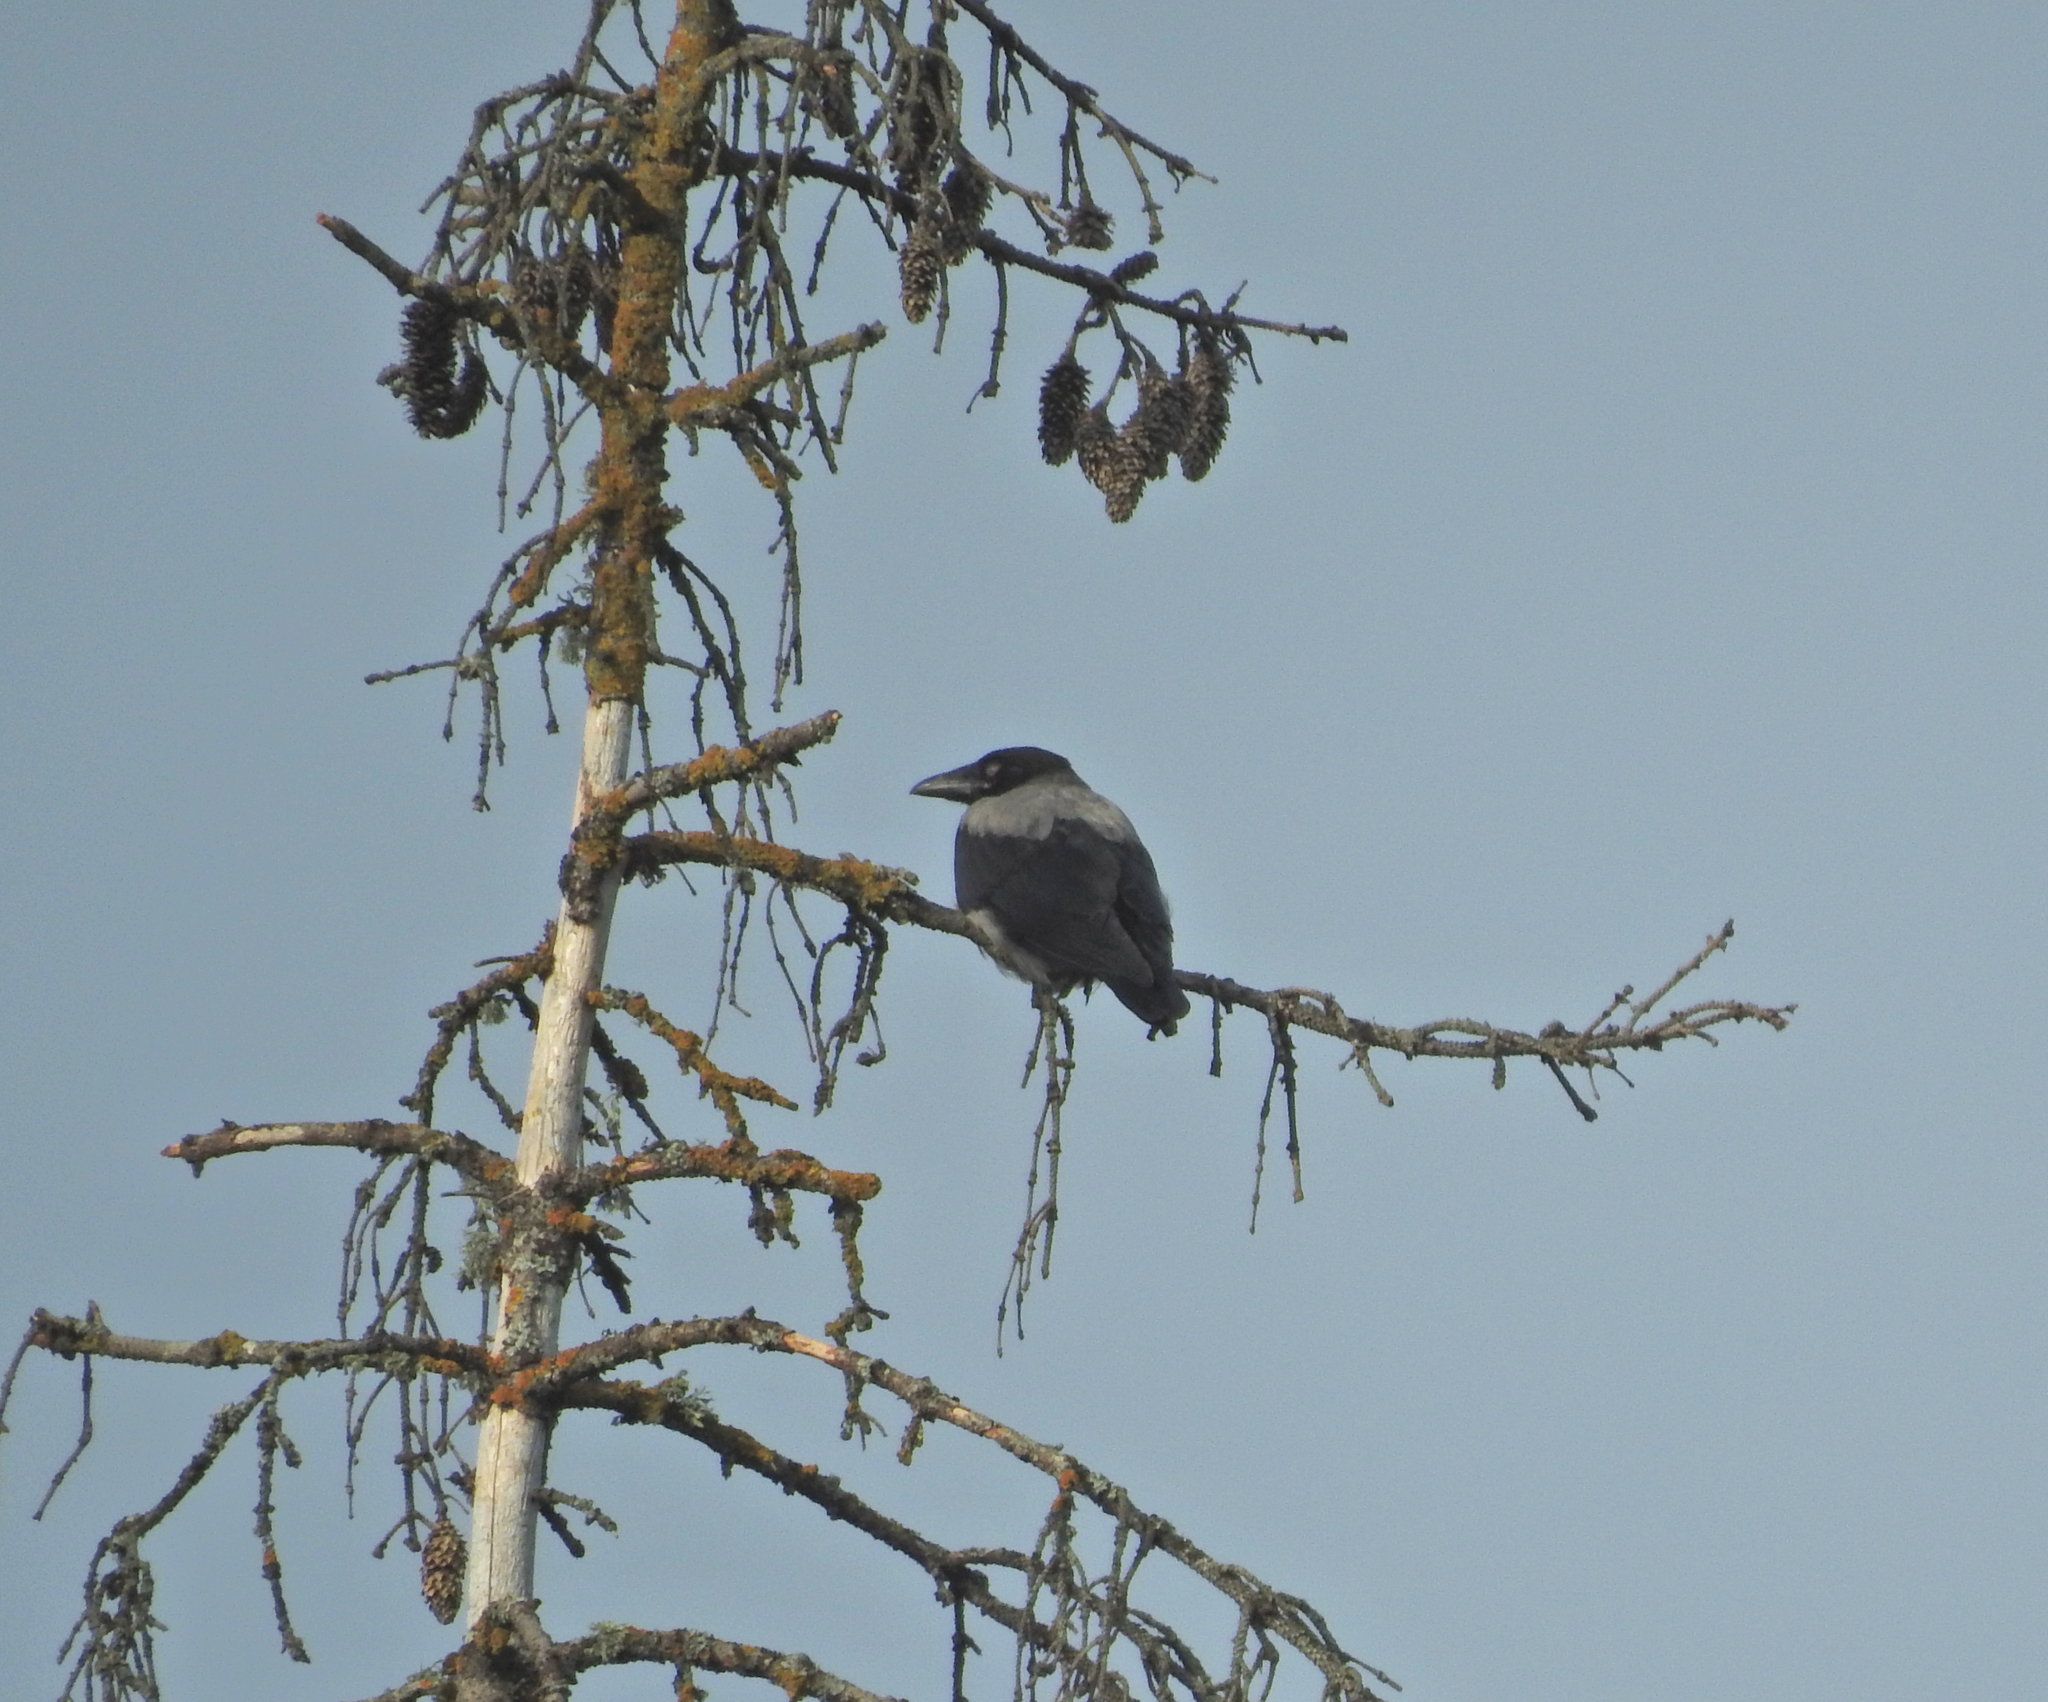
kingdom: Animalia
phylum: Chordata
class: Aves
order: Passeriformes
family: Corvidae
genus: Corvus
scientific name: Corvus cornix
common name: Hooded crow
